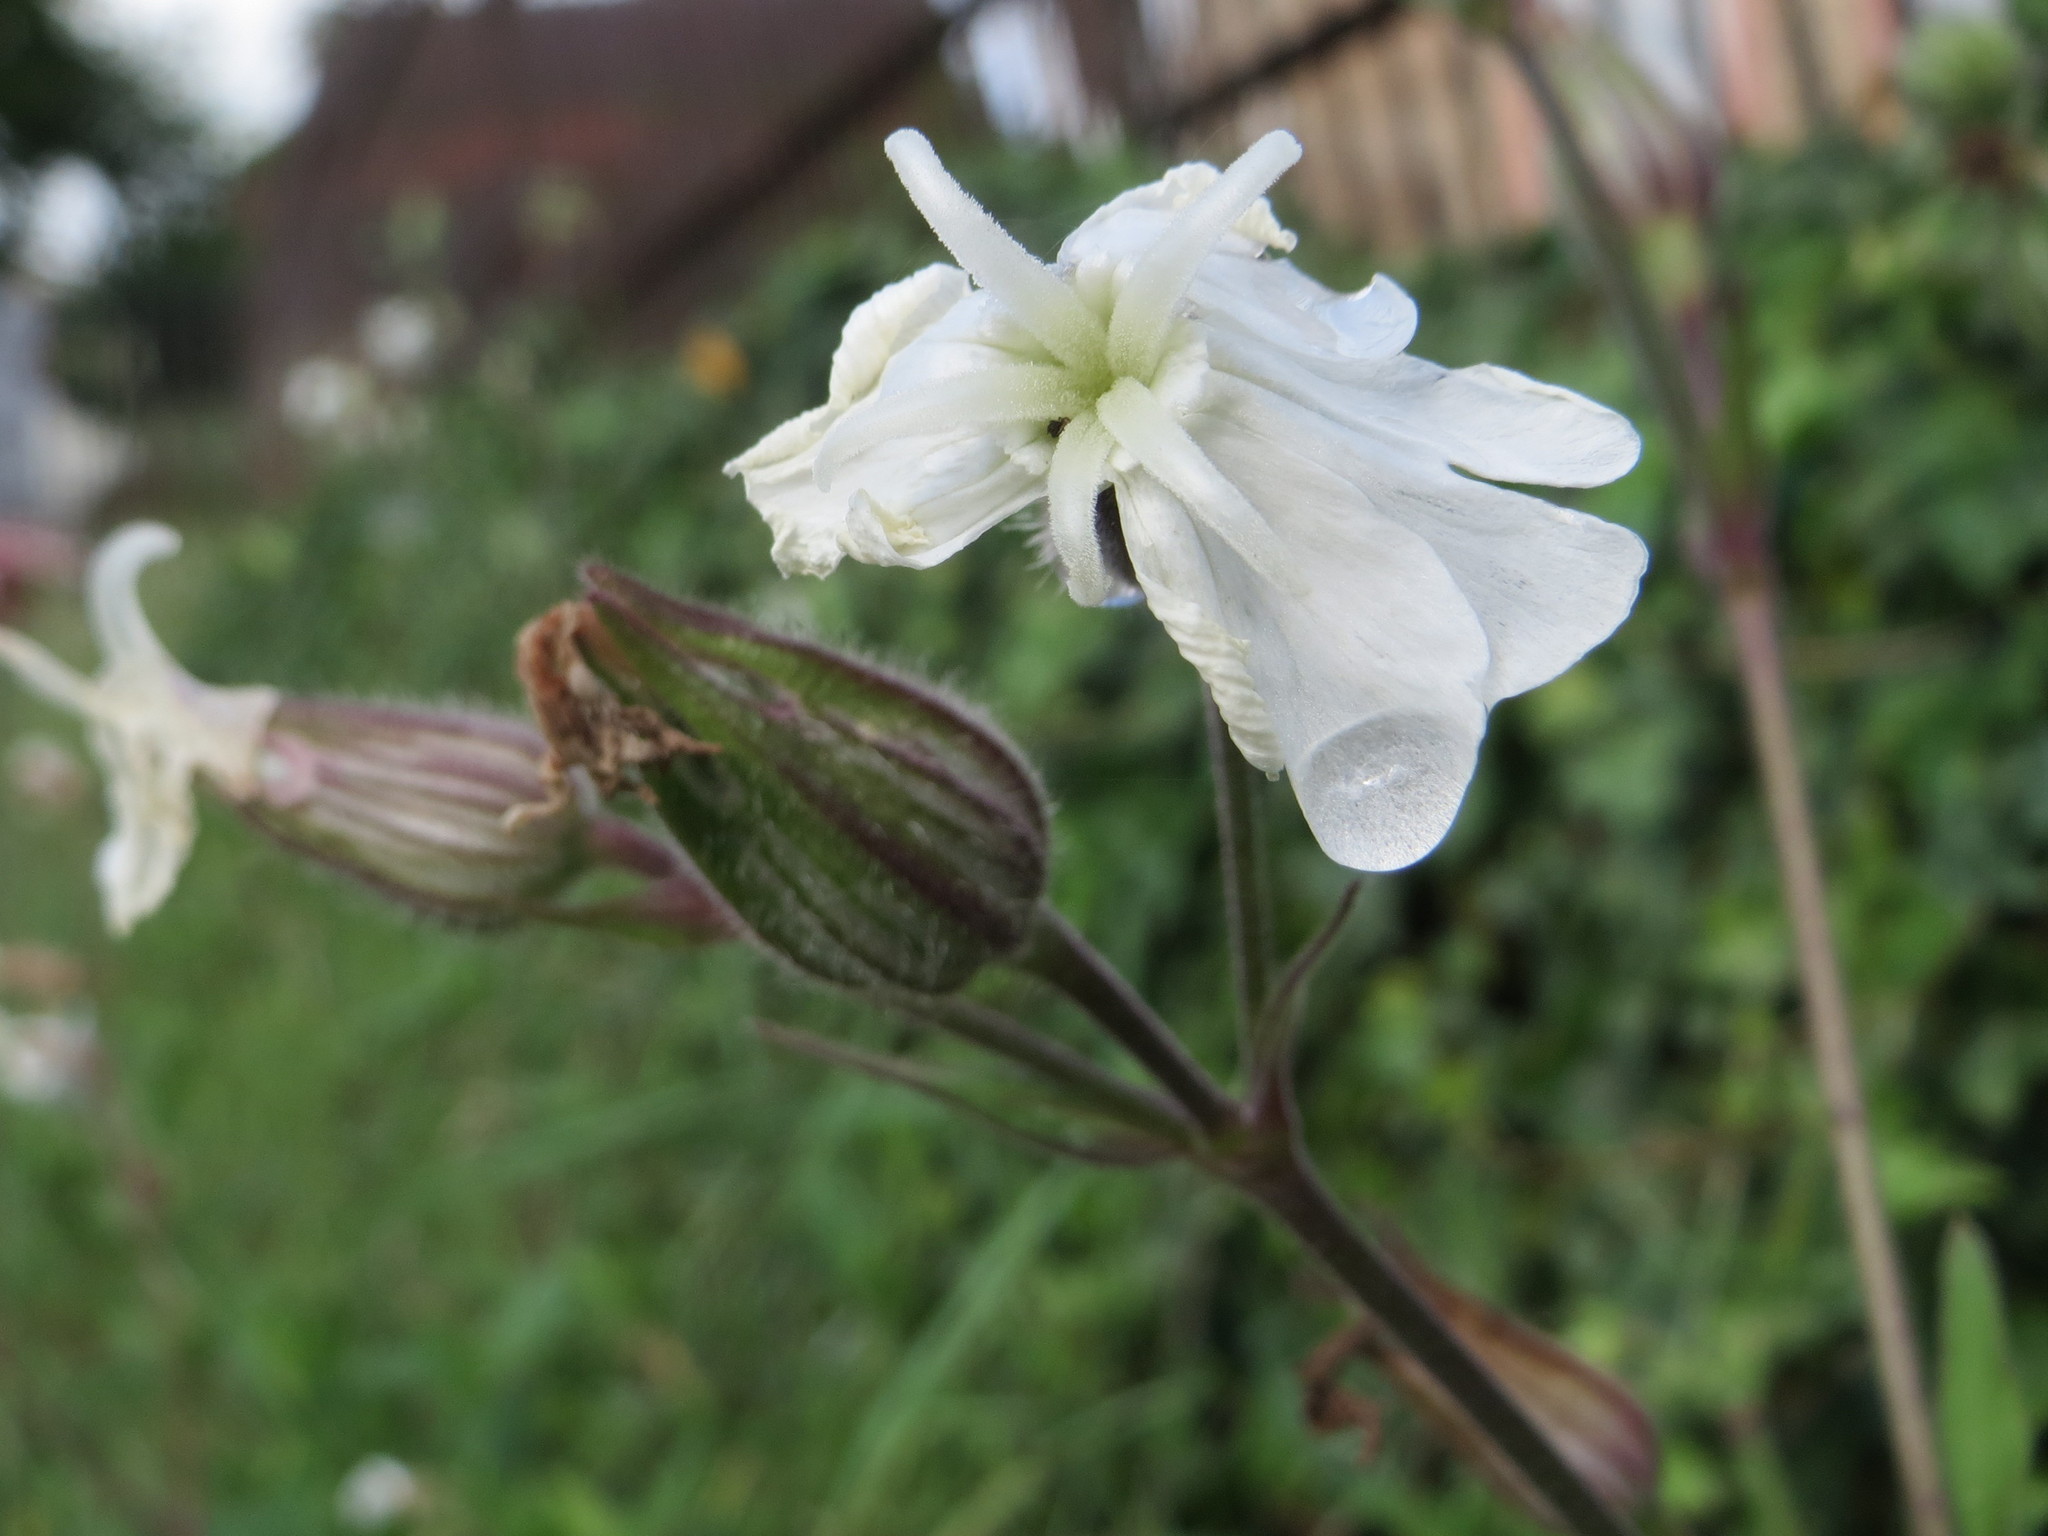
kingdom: Plantae
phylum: Tracheophyta
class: Magnoliopsida
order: Caryophyllales
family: Caryophyllaceae
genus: Silene
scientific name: Silene latifolia
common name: White campion
